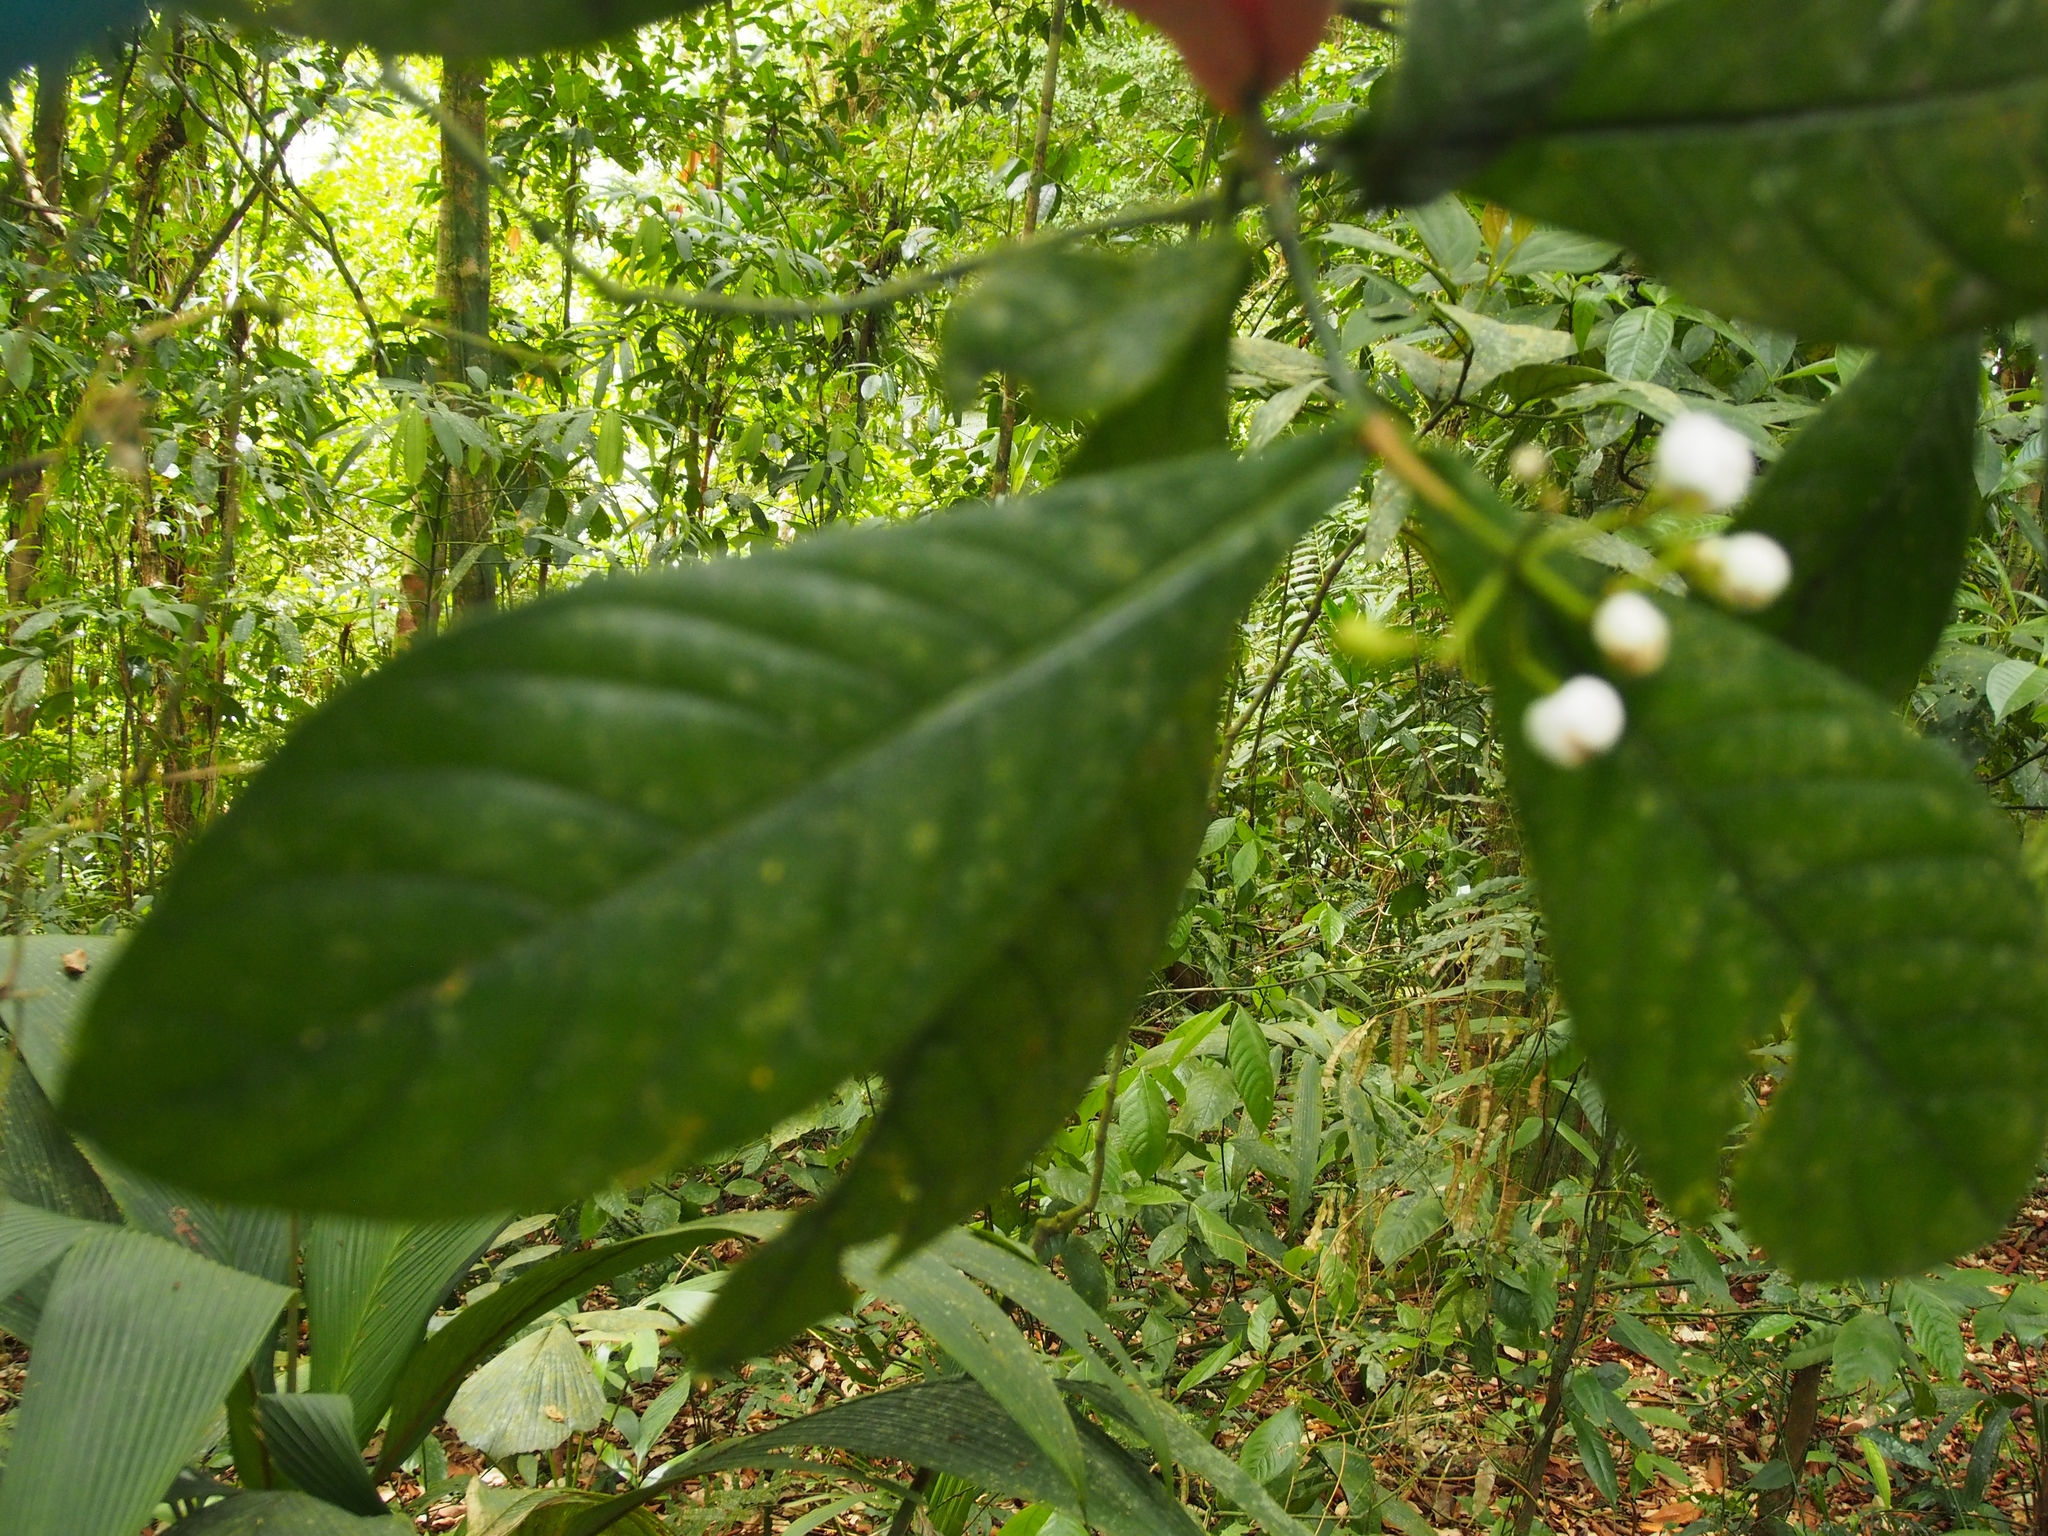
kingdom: Plantae
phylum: Tracheophyta
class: Magnoliopsida
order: Gentianales
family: Rubiaceae
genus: Rudgea
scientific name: Rudgea reducticalyx
